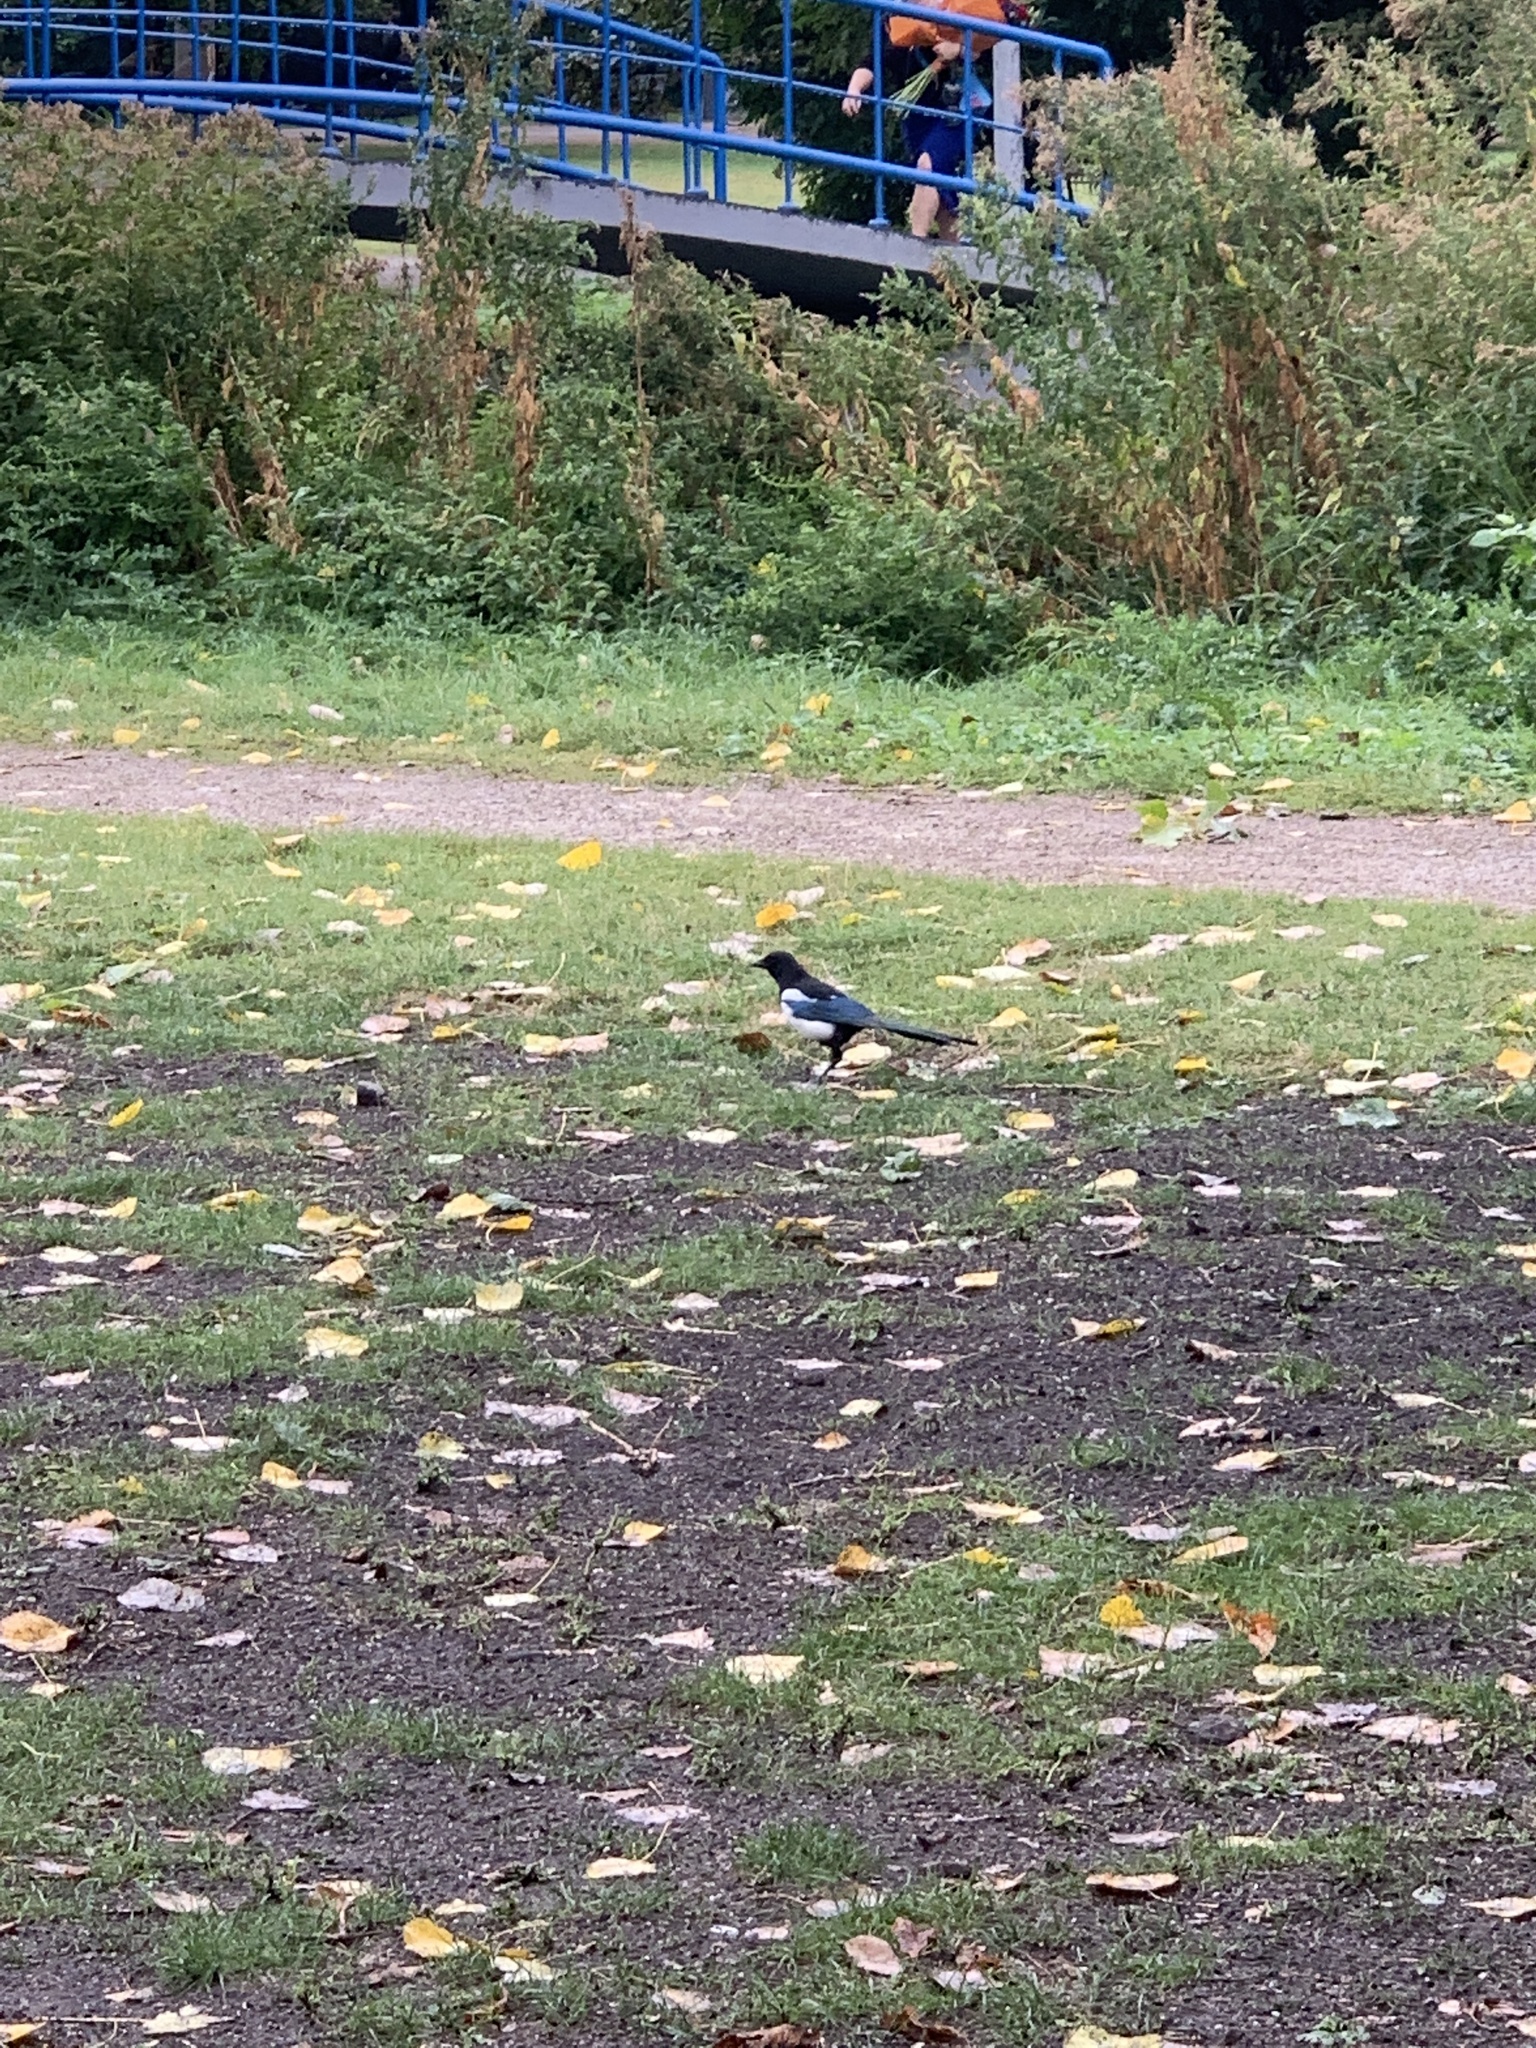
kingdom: Animalia
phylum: Chordata
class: Aves
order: Passeriformes
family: Corvidae
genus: Pica
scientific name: Pica pica
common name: Eurasian magpie
